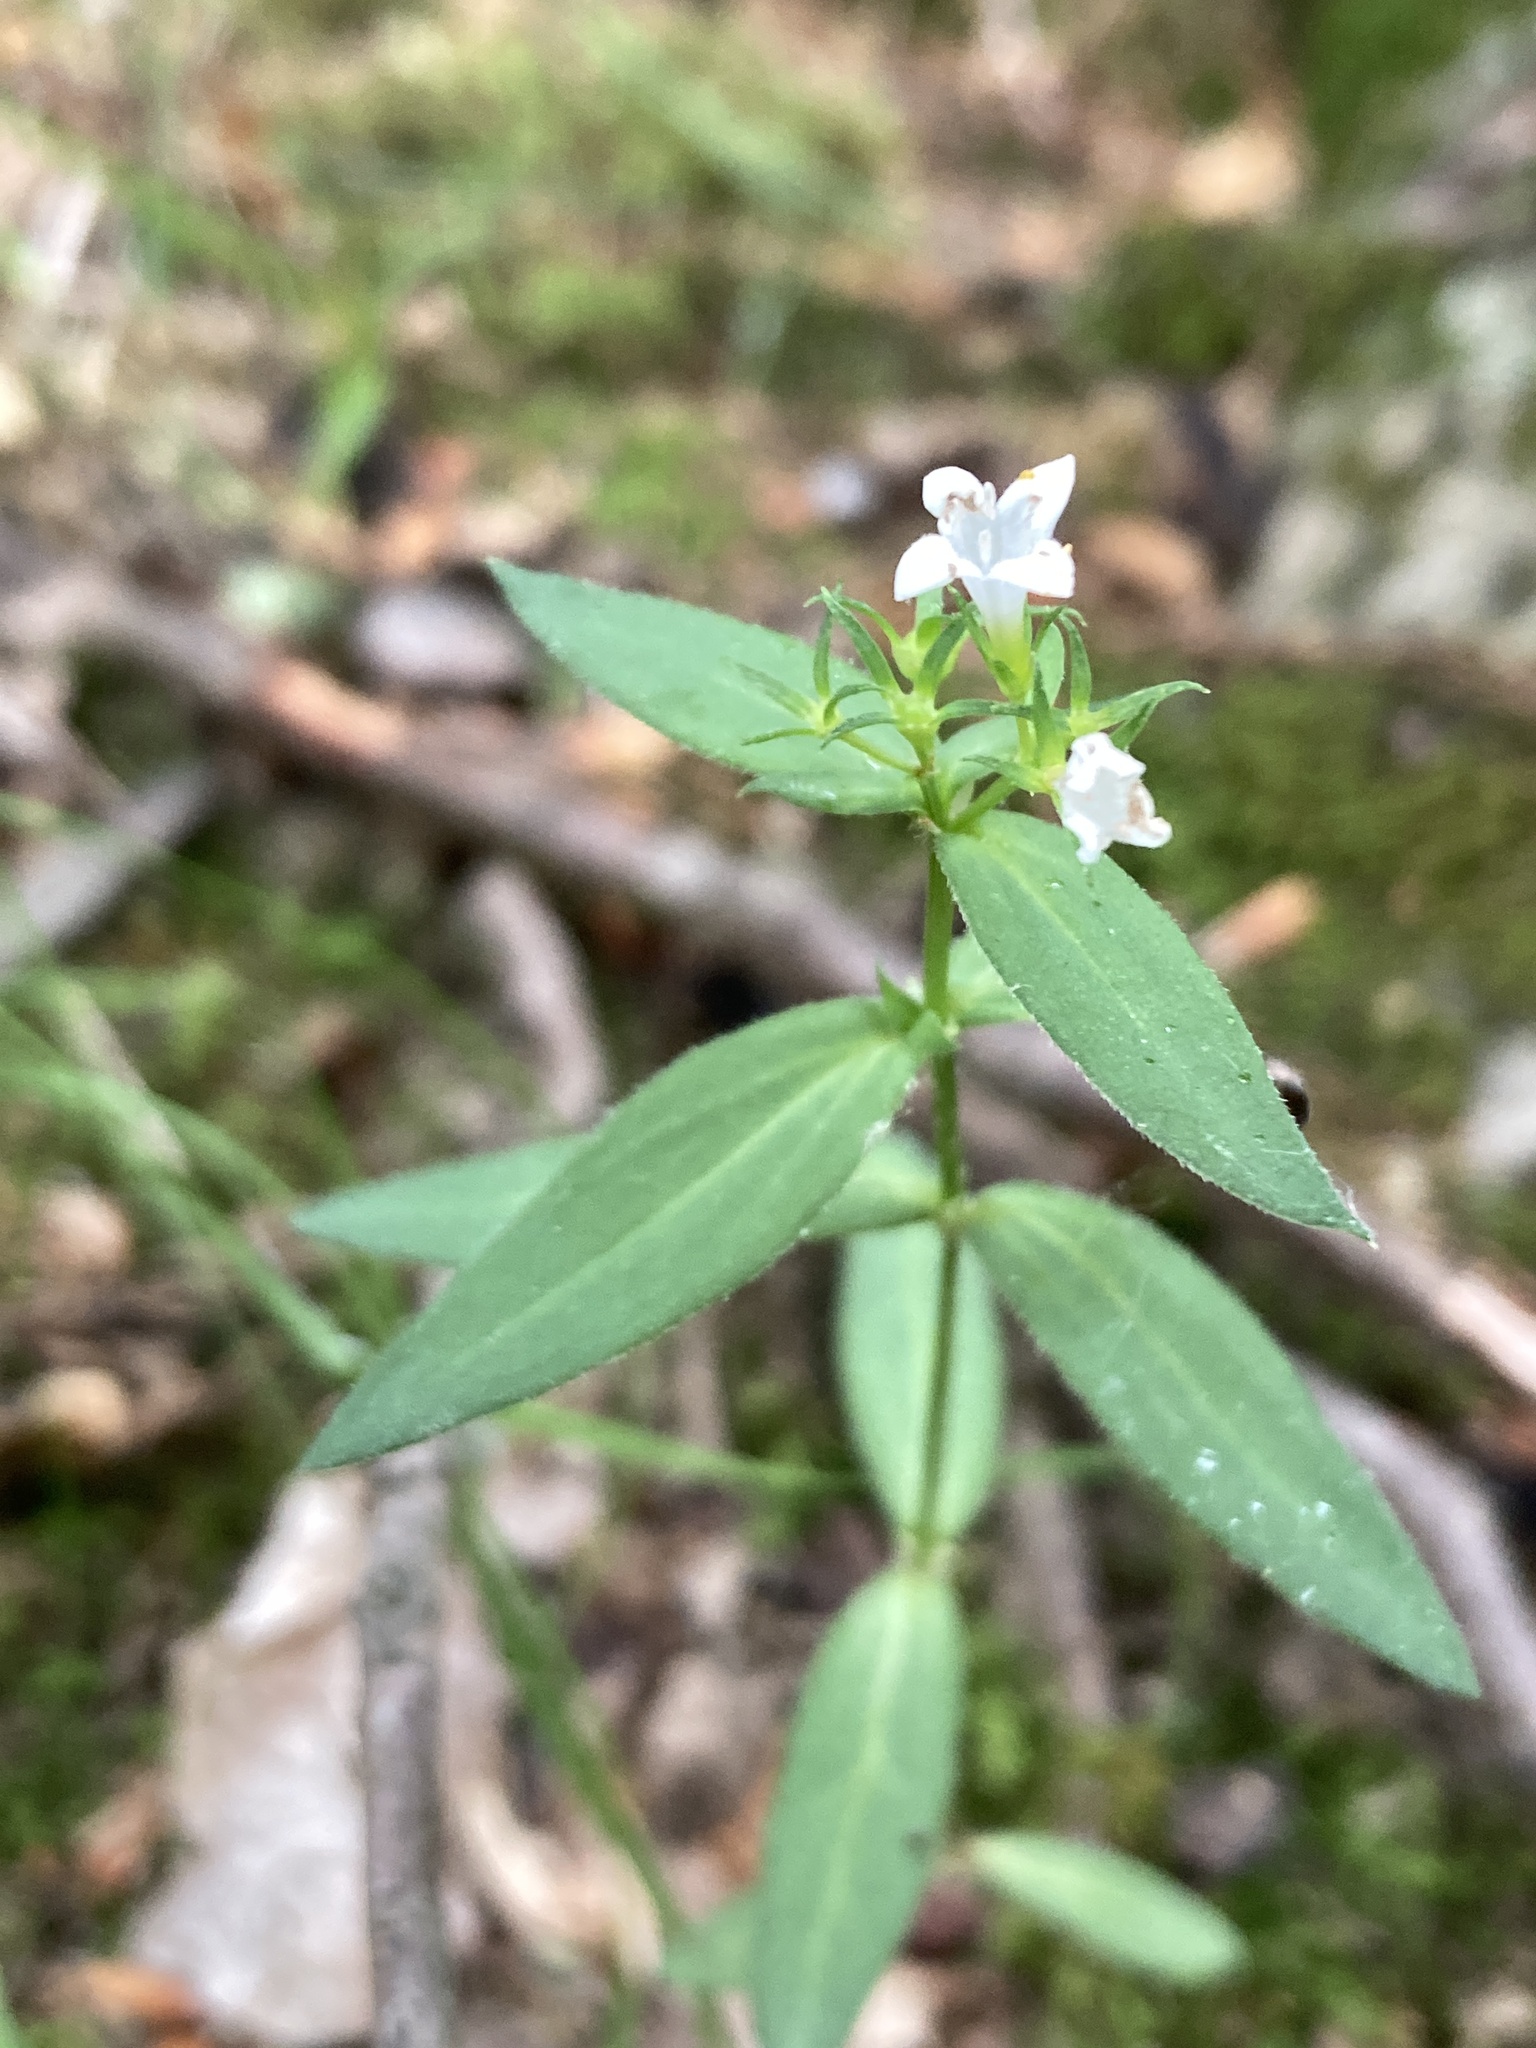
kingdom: Plantae
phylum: Tracheophyta
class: Magnoliopsida
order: Gentianales
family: Rubiaceae
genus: Houstonia
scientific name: Houstonia purpurea
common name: Summer bluet
